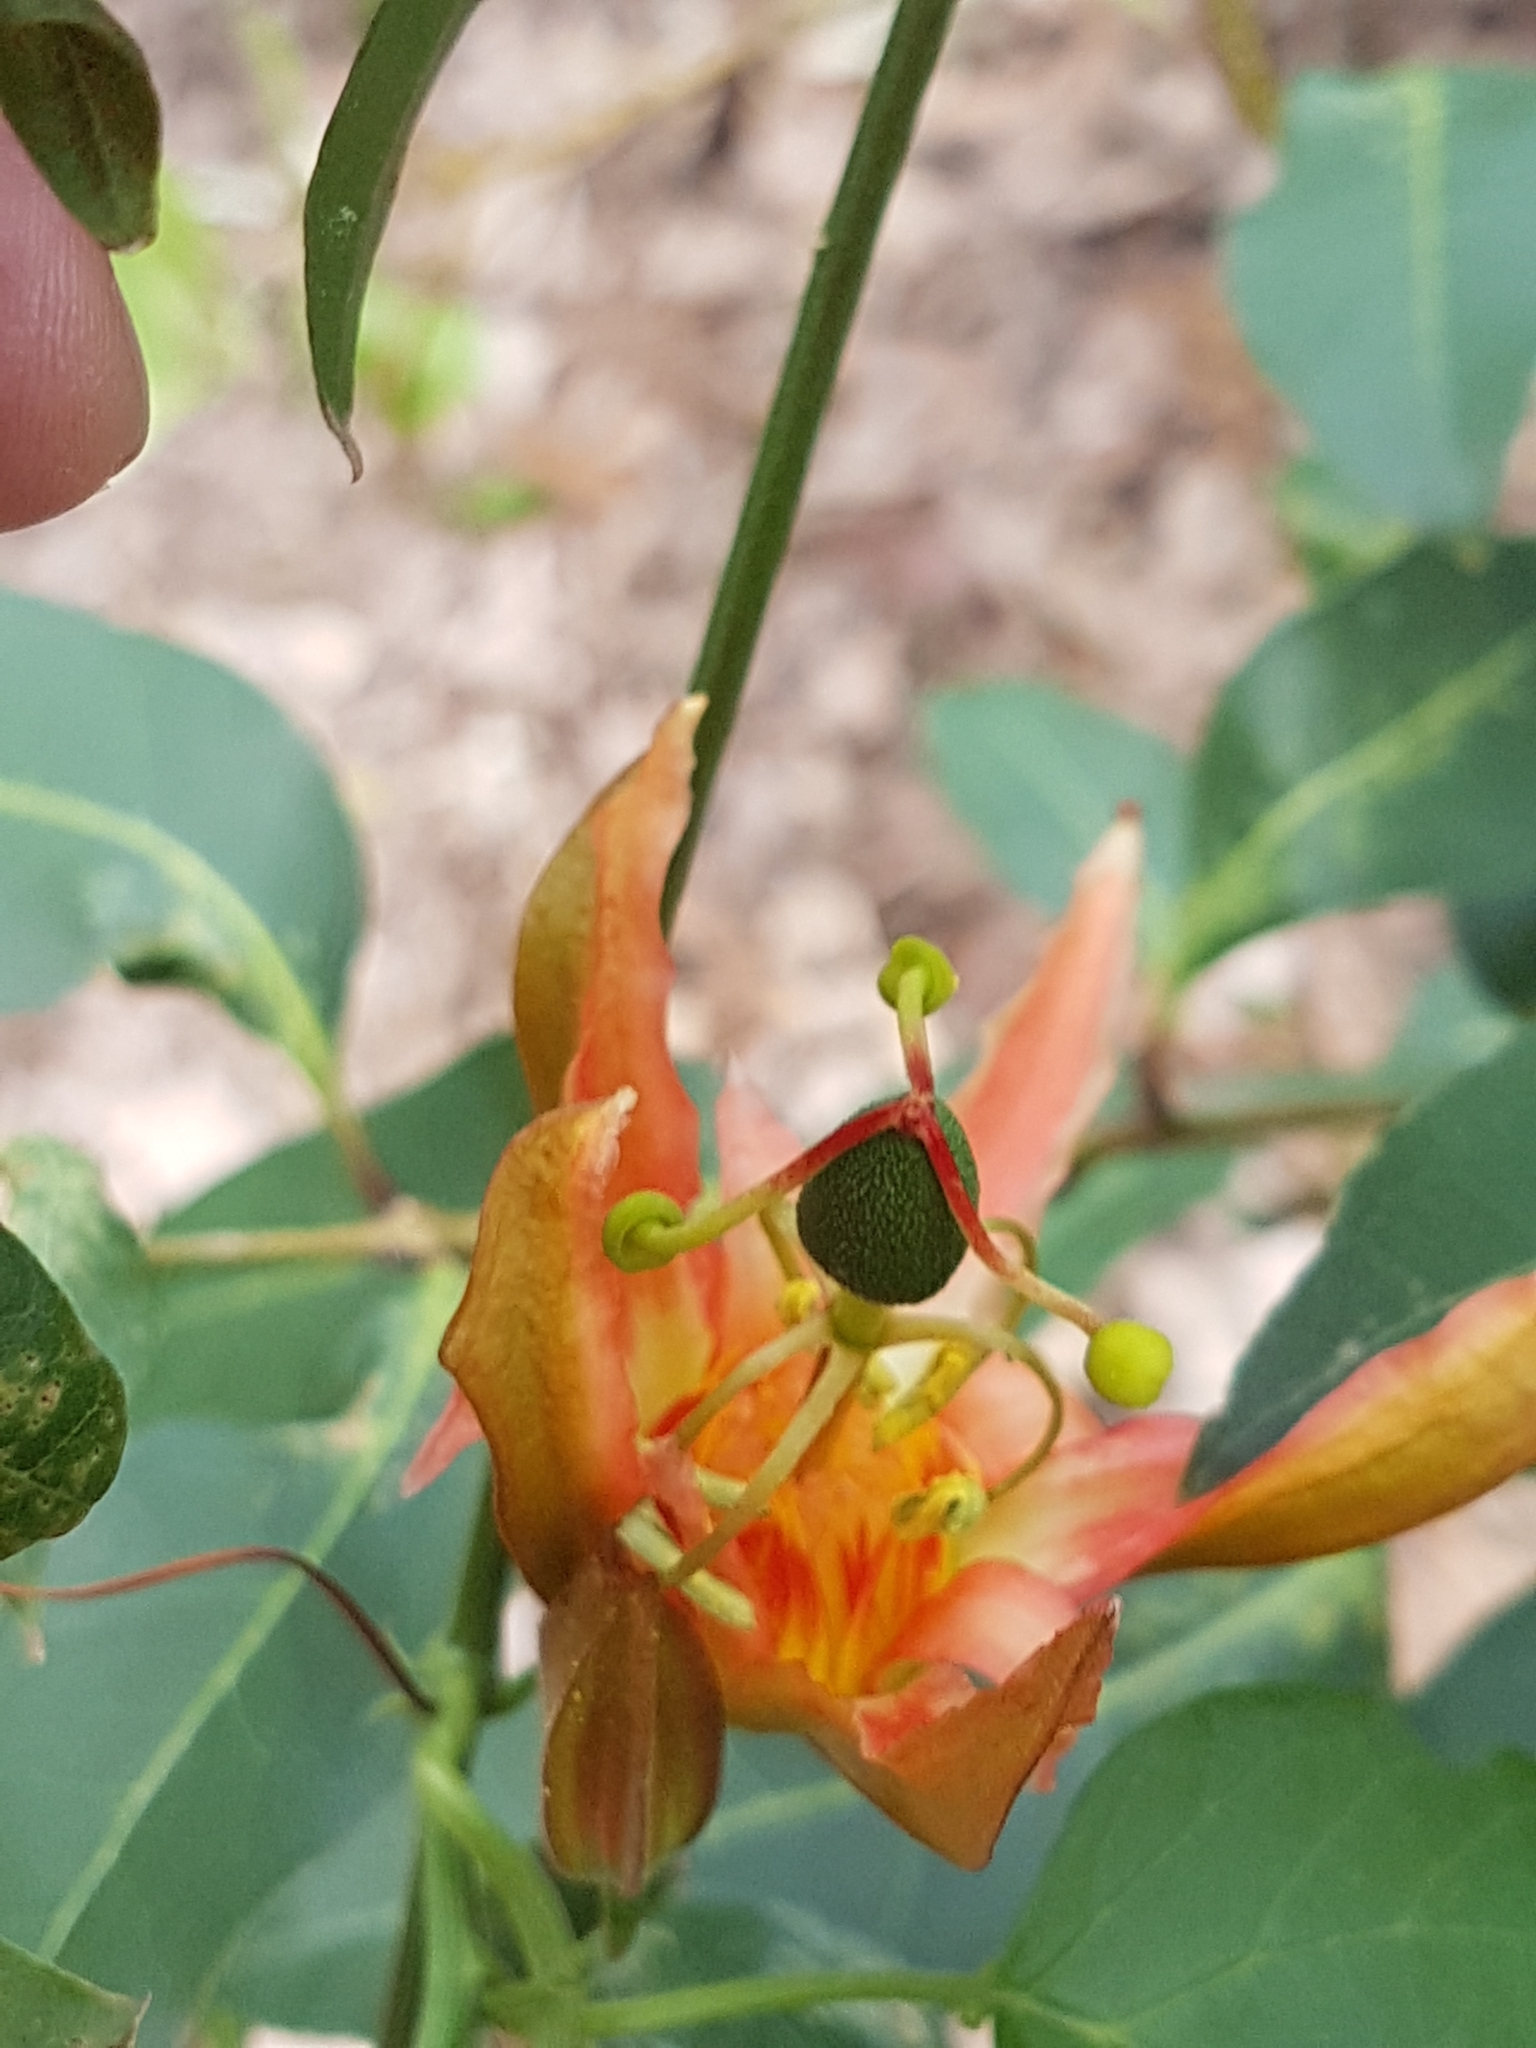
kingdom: Plantae
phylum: Tracheophyta
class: Magnoliopsida
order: Malpighiales
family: Passifloraceae
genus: Passiflora
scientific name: Passiflora herbertiana
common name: Yellow passionflower
